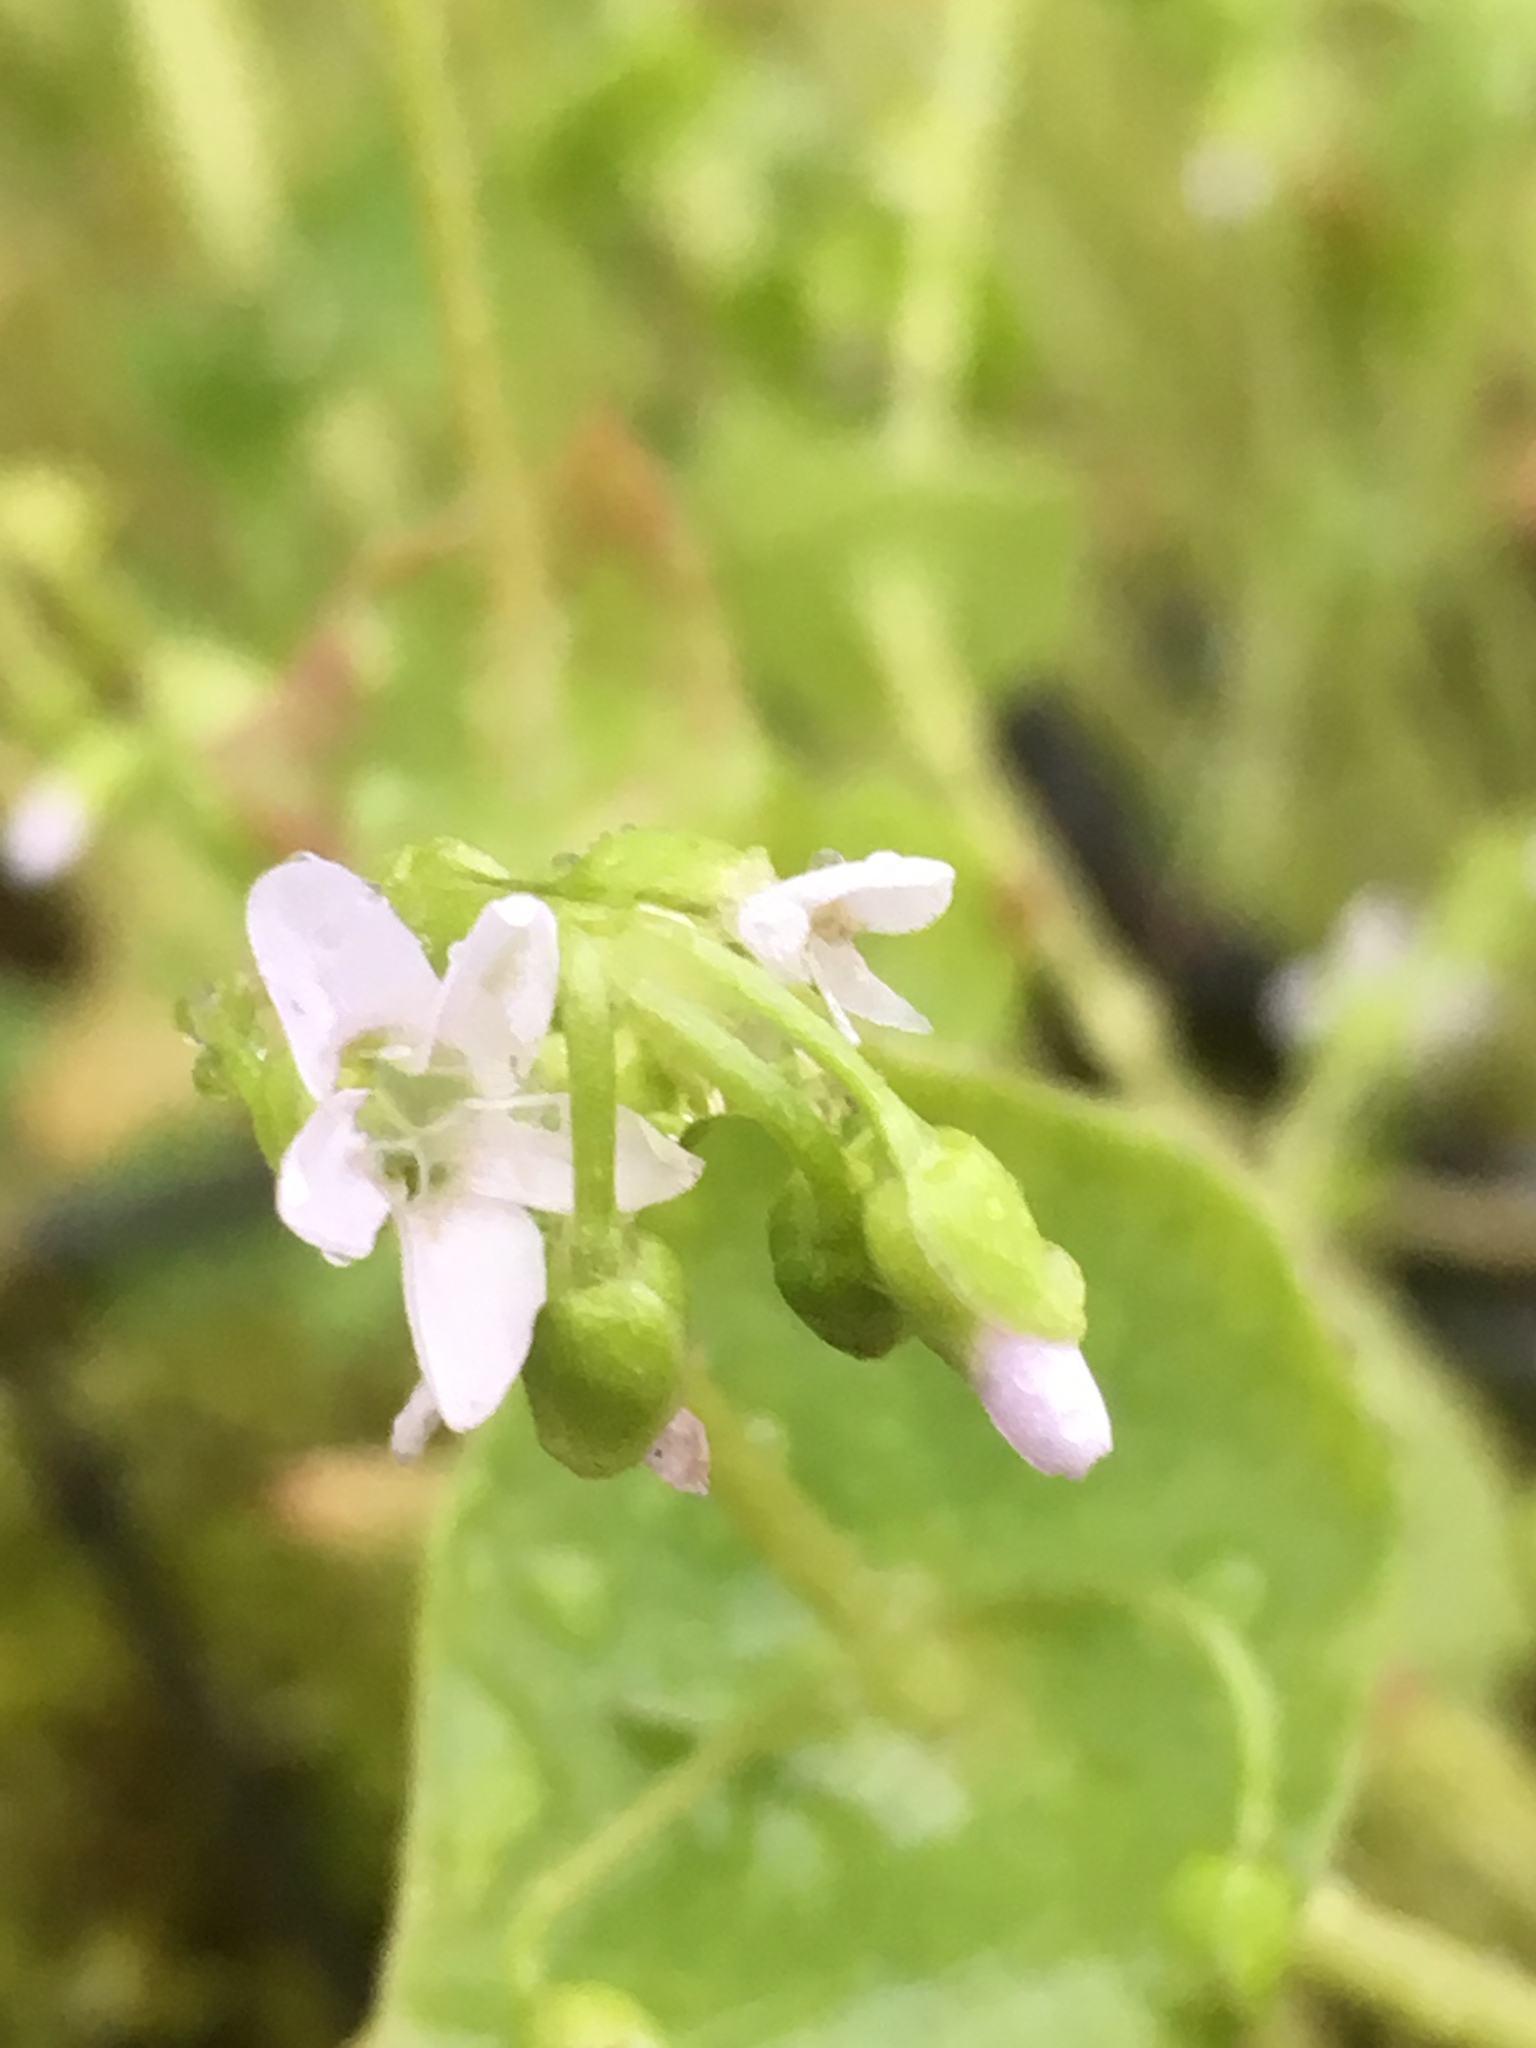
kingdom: Plantae
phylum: Tracheophyta
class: Magnoliopsida
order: Caryophyllales
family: Montiaceae
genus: Claytonia
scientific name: Claytonia perfoliata
